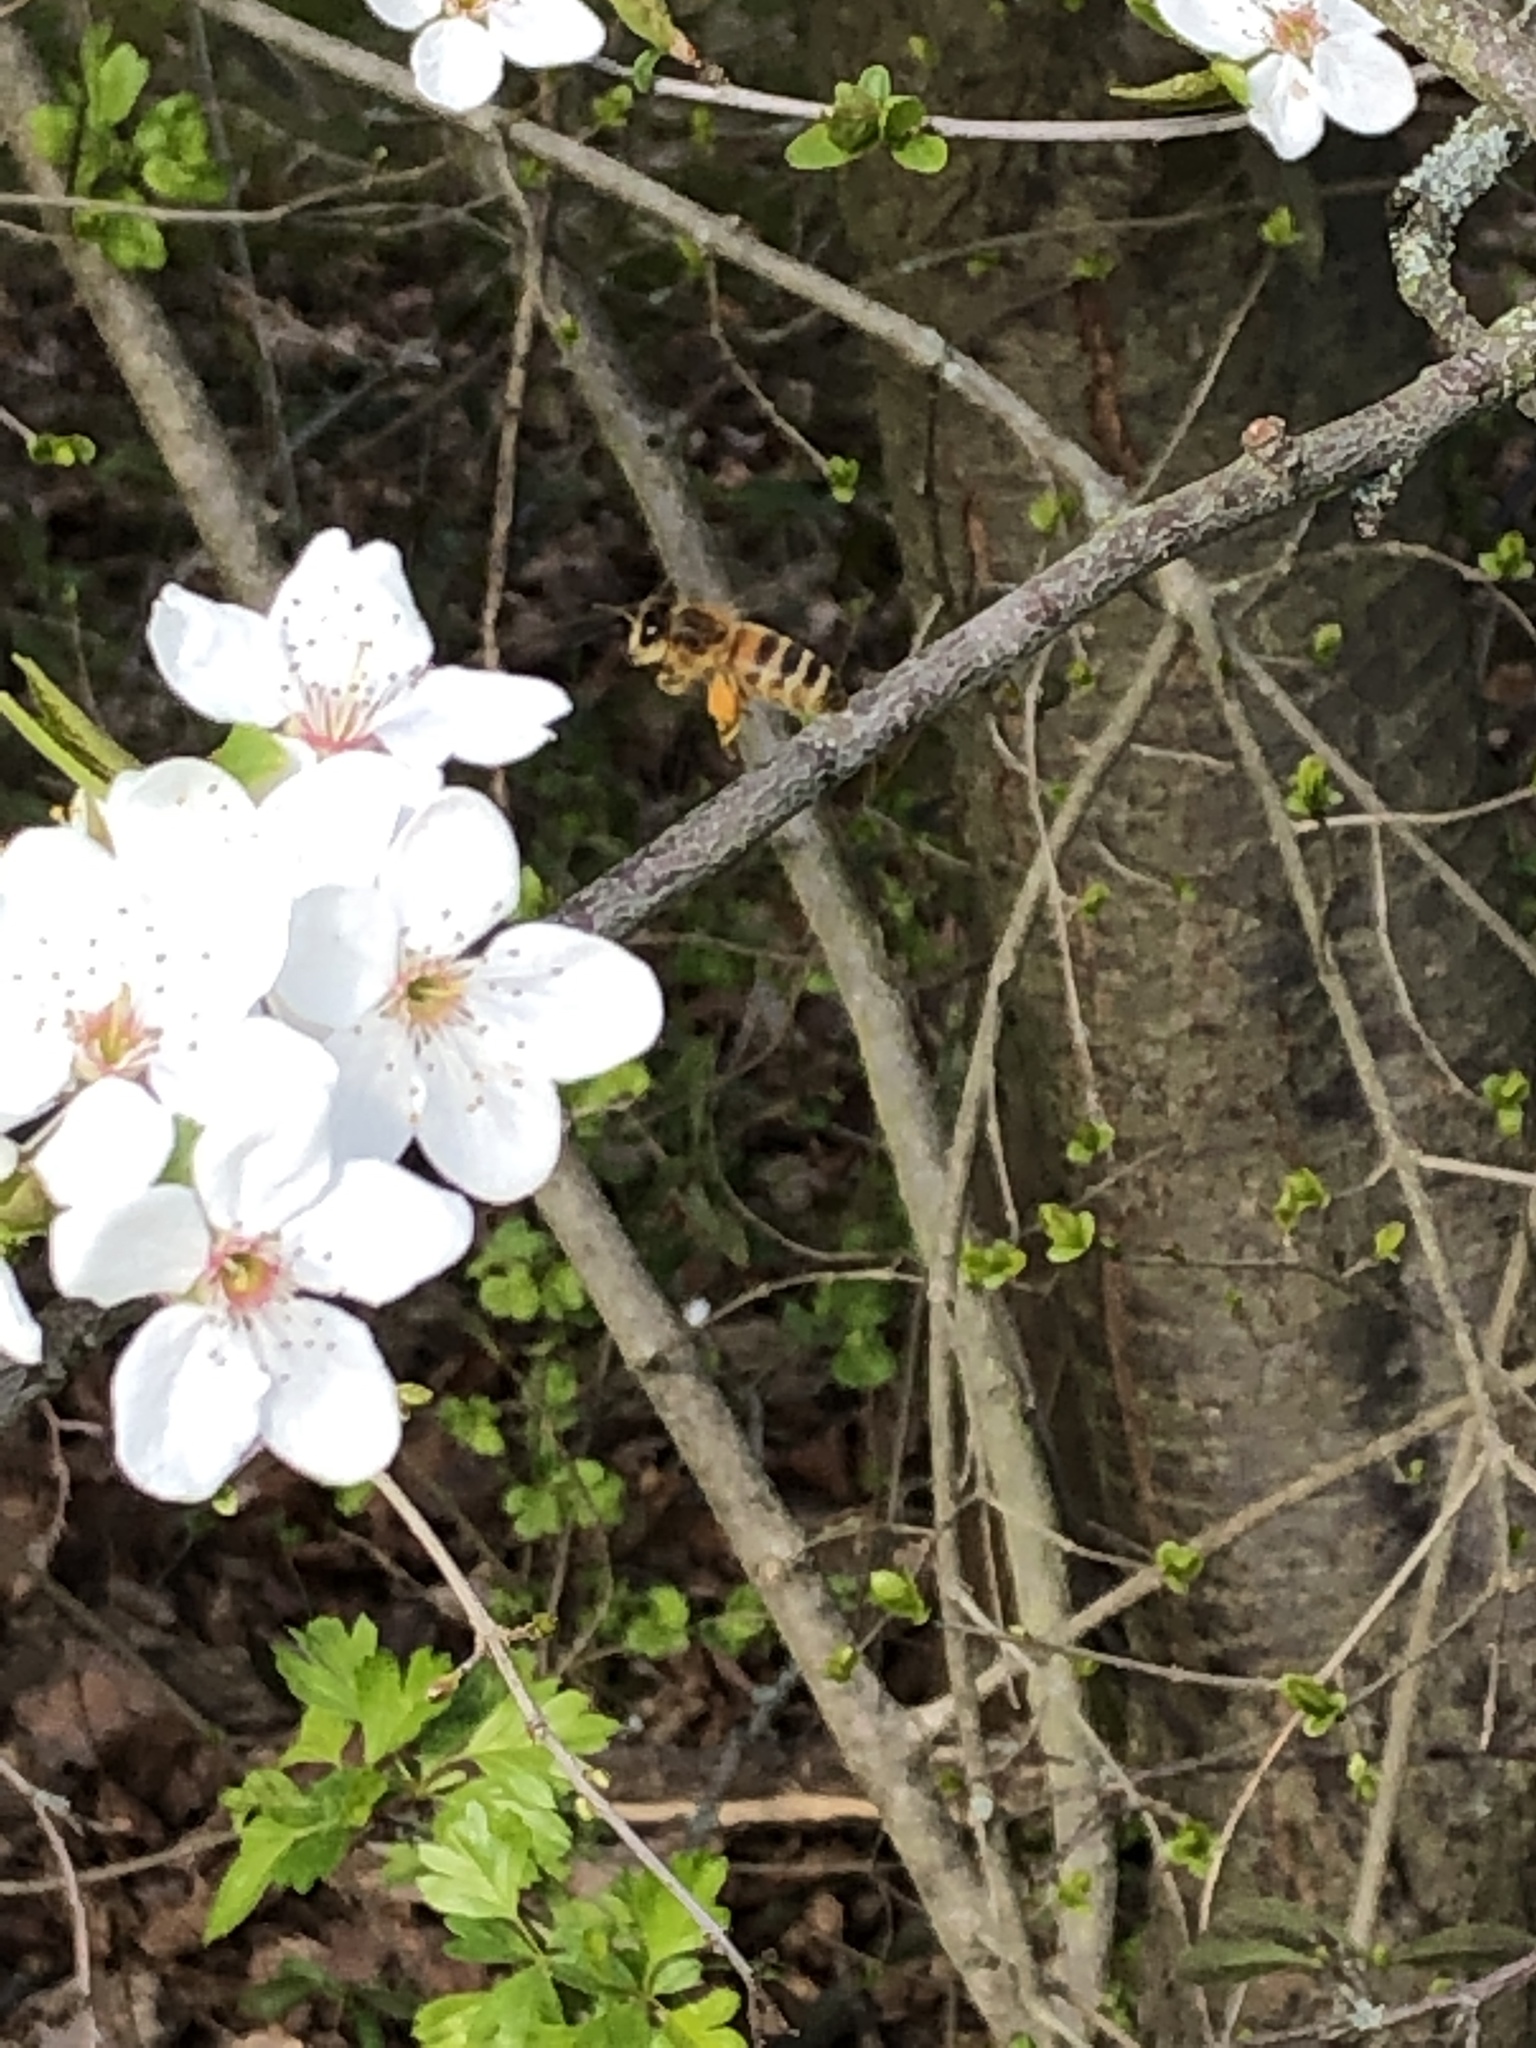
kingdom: Animalia
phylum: Arthropoda
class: Insecta
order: Hymenoptera
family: Apidae
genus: Apis
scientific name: Apis mellifera
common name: Honey bee
